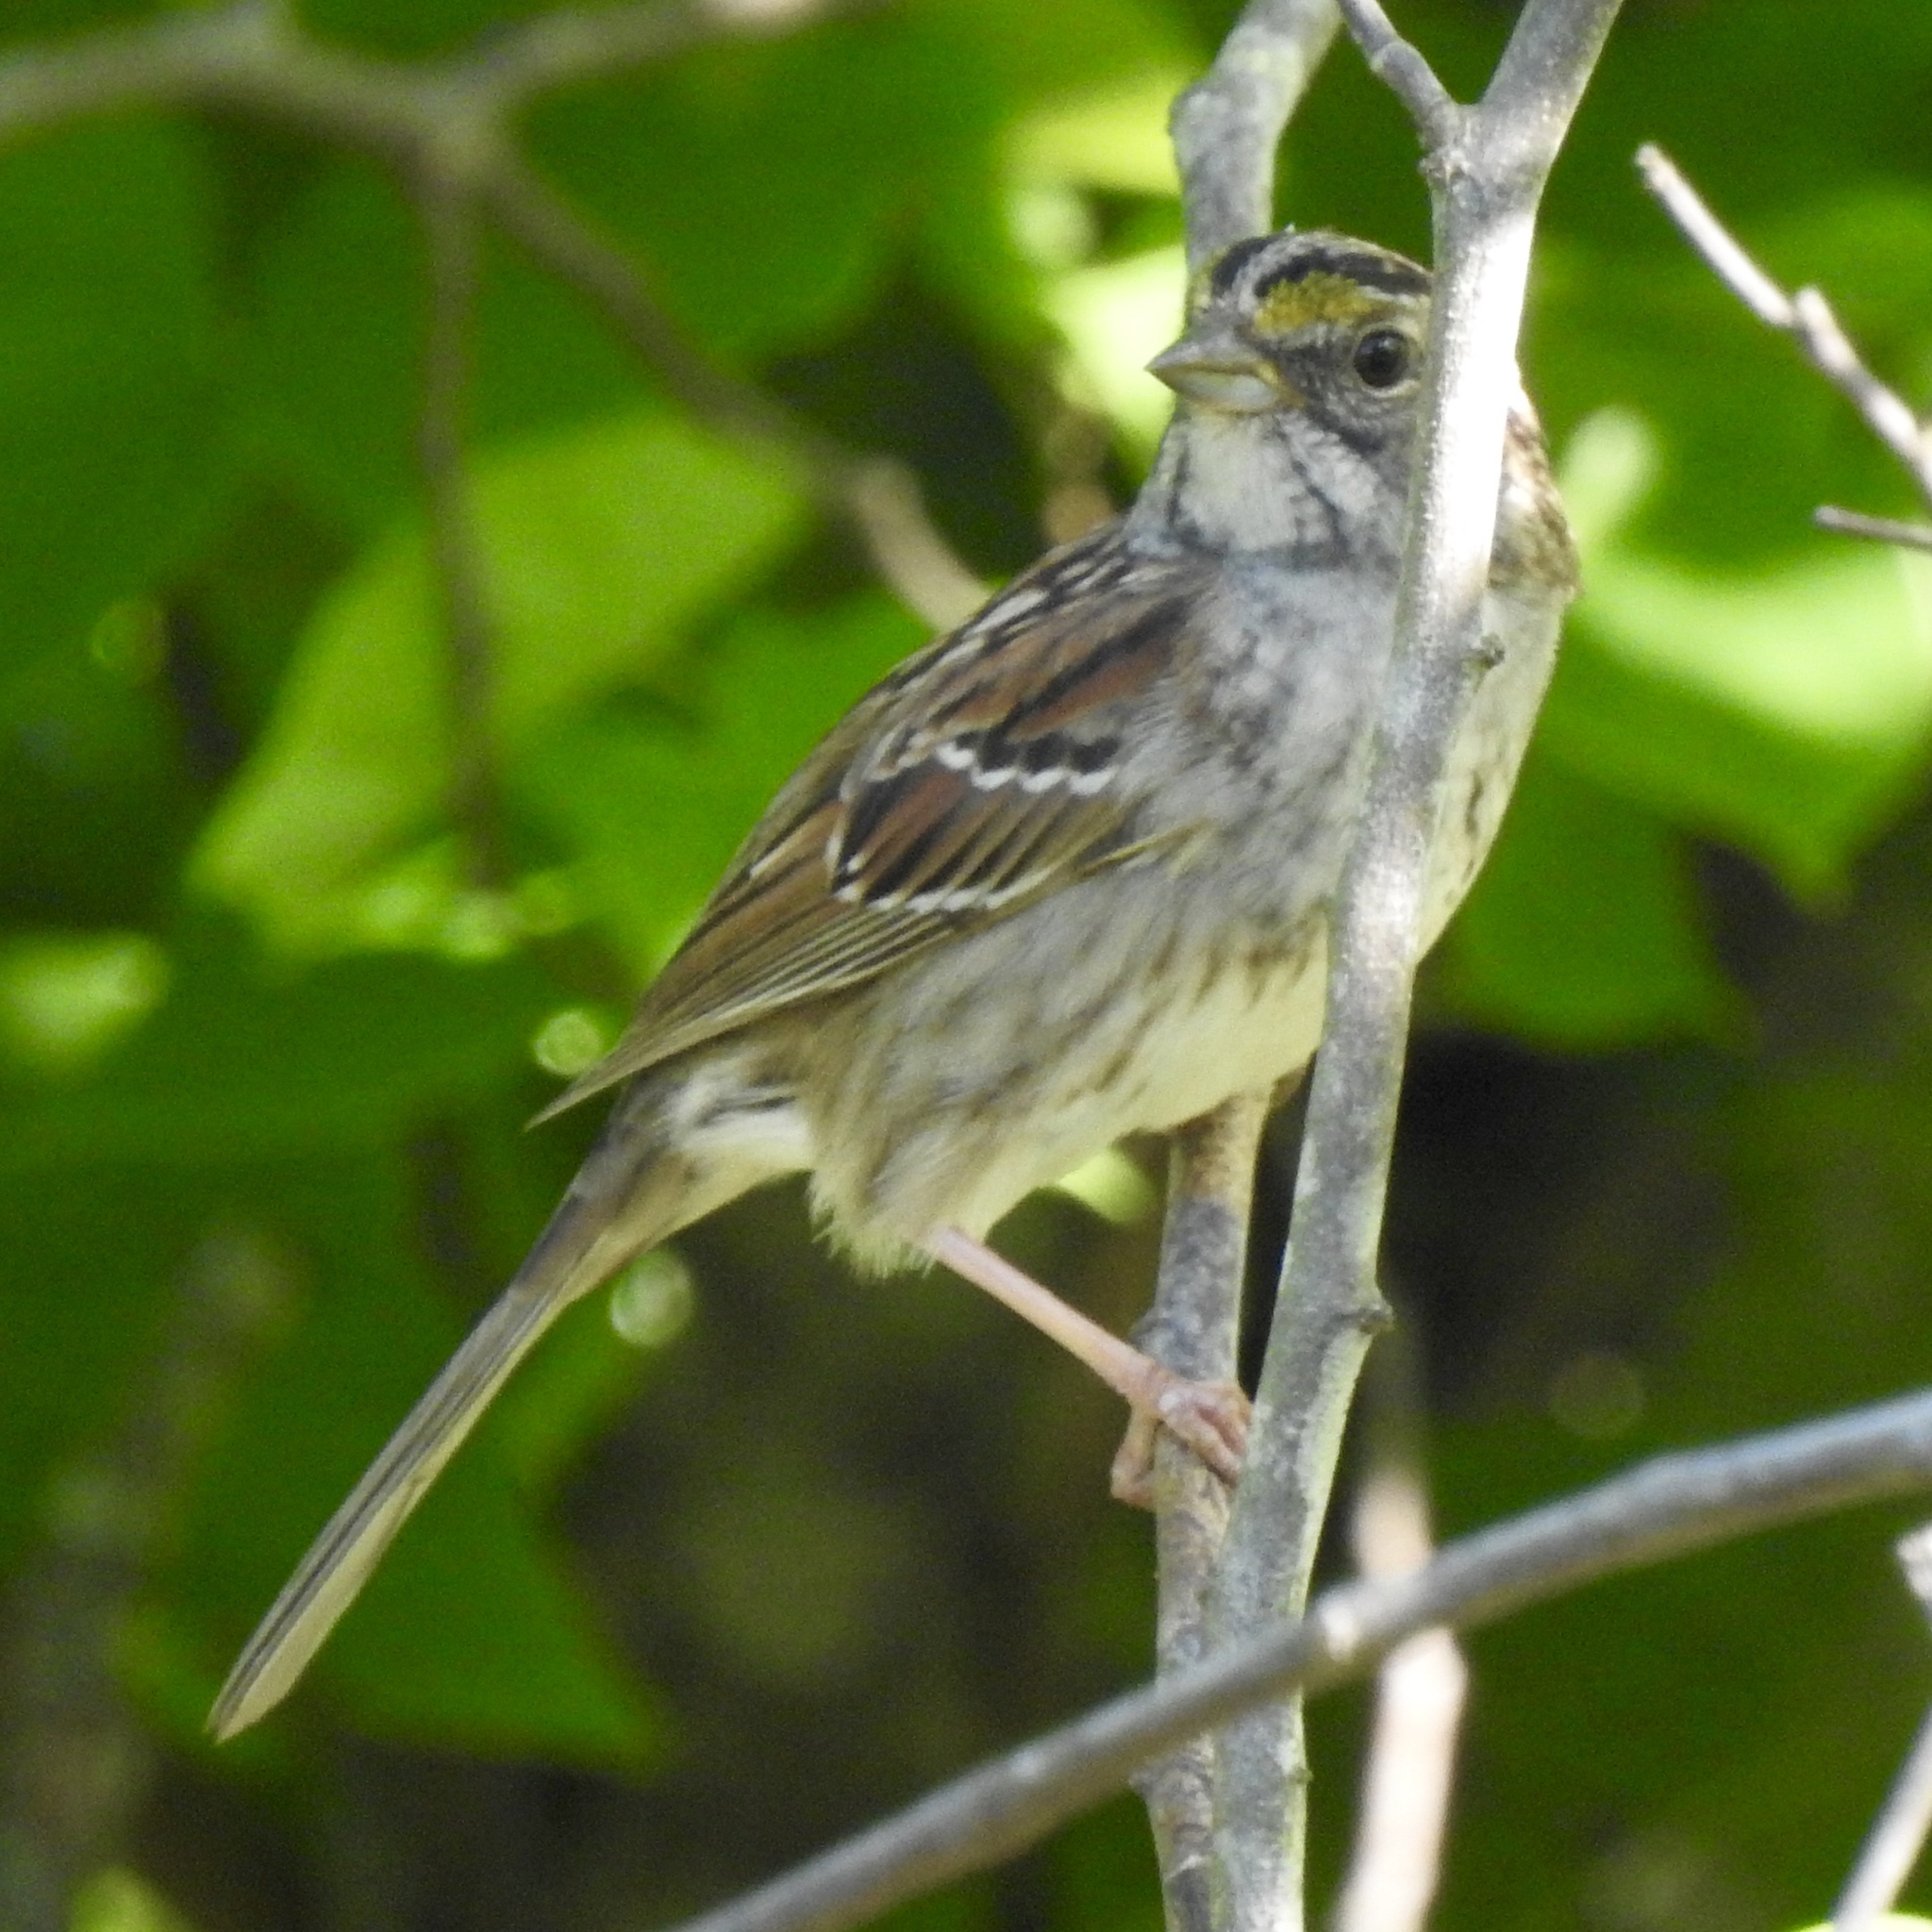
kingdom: Animalia
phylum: Chordata
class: Aves
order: Passeriformes
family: Passerellidae
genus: Zonotrichia
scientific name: Zonotrichia albicollis
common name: White-throated sparrow
